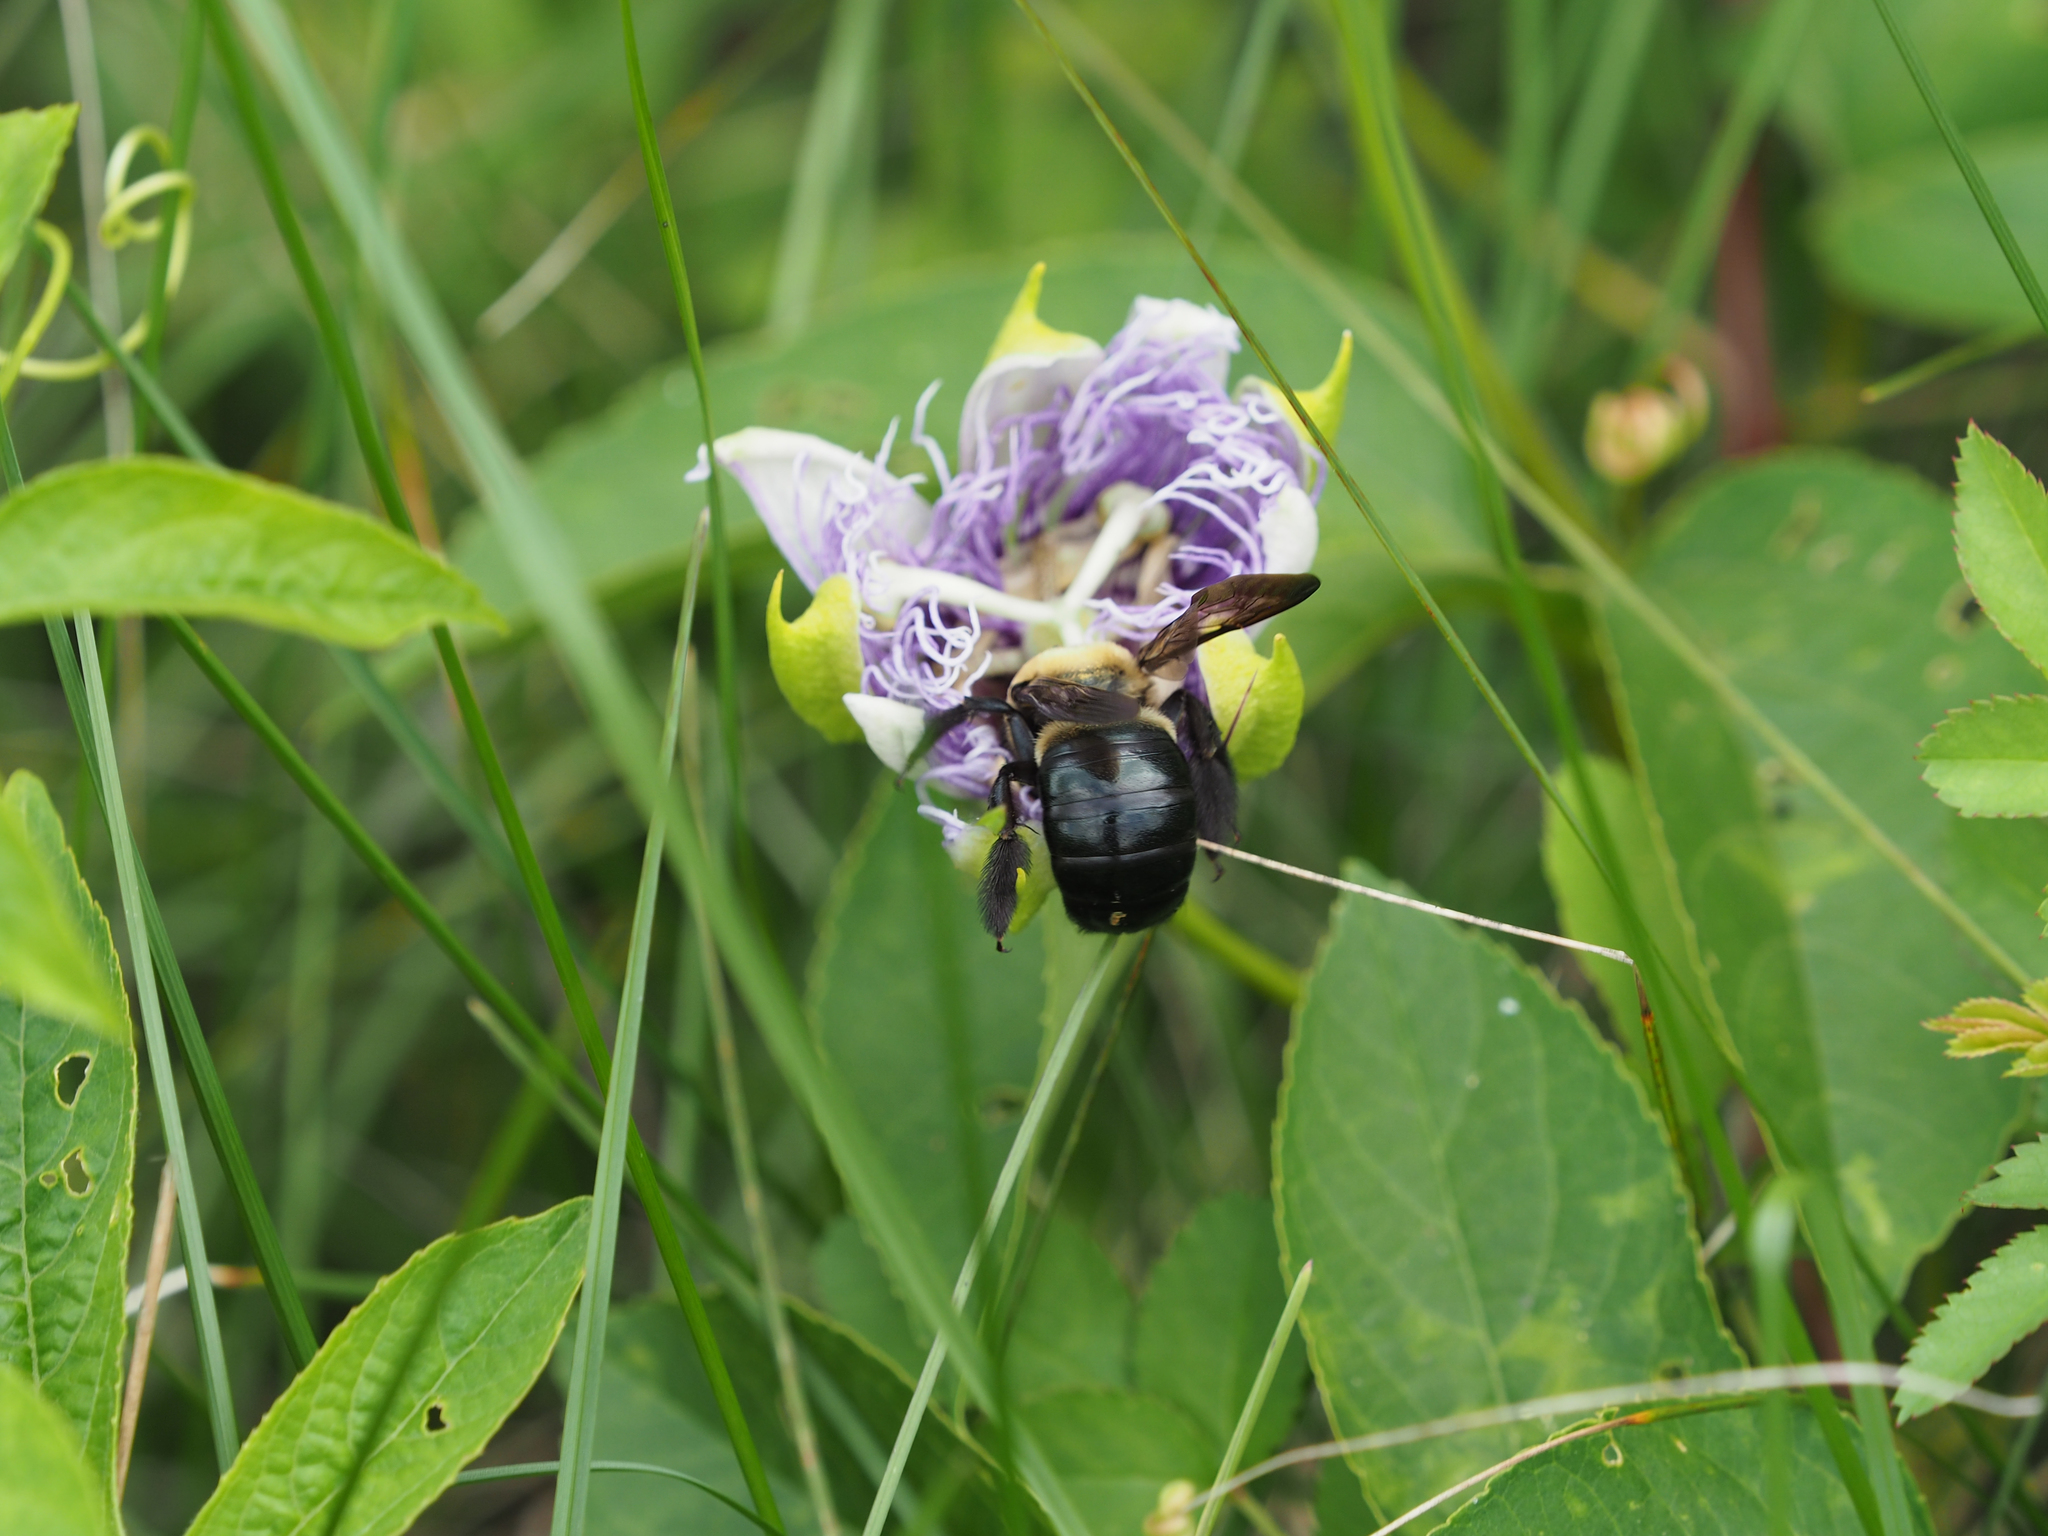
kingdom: Animalia
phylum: Arthropoda
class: Insecta
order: Hymenoptera
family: Apidae
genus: Xylocopa
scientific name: Xylocopa virginica
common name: Carpenter bee
